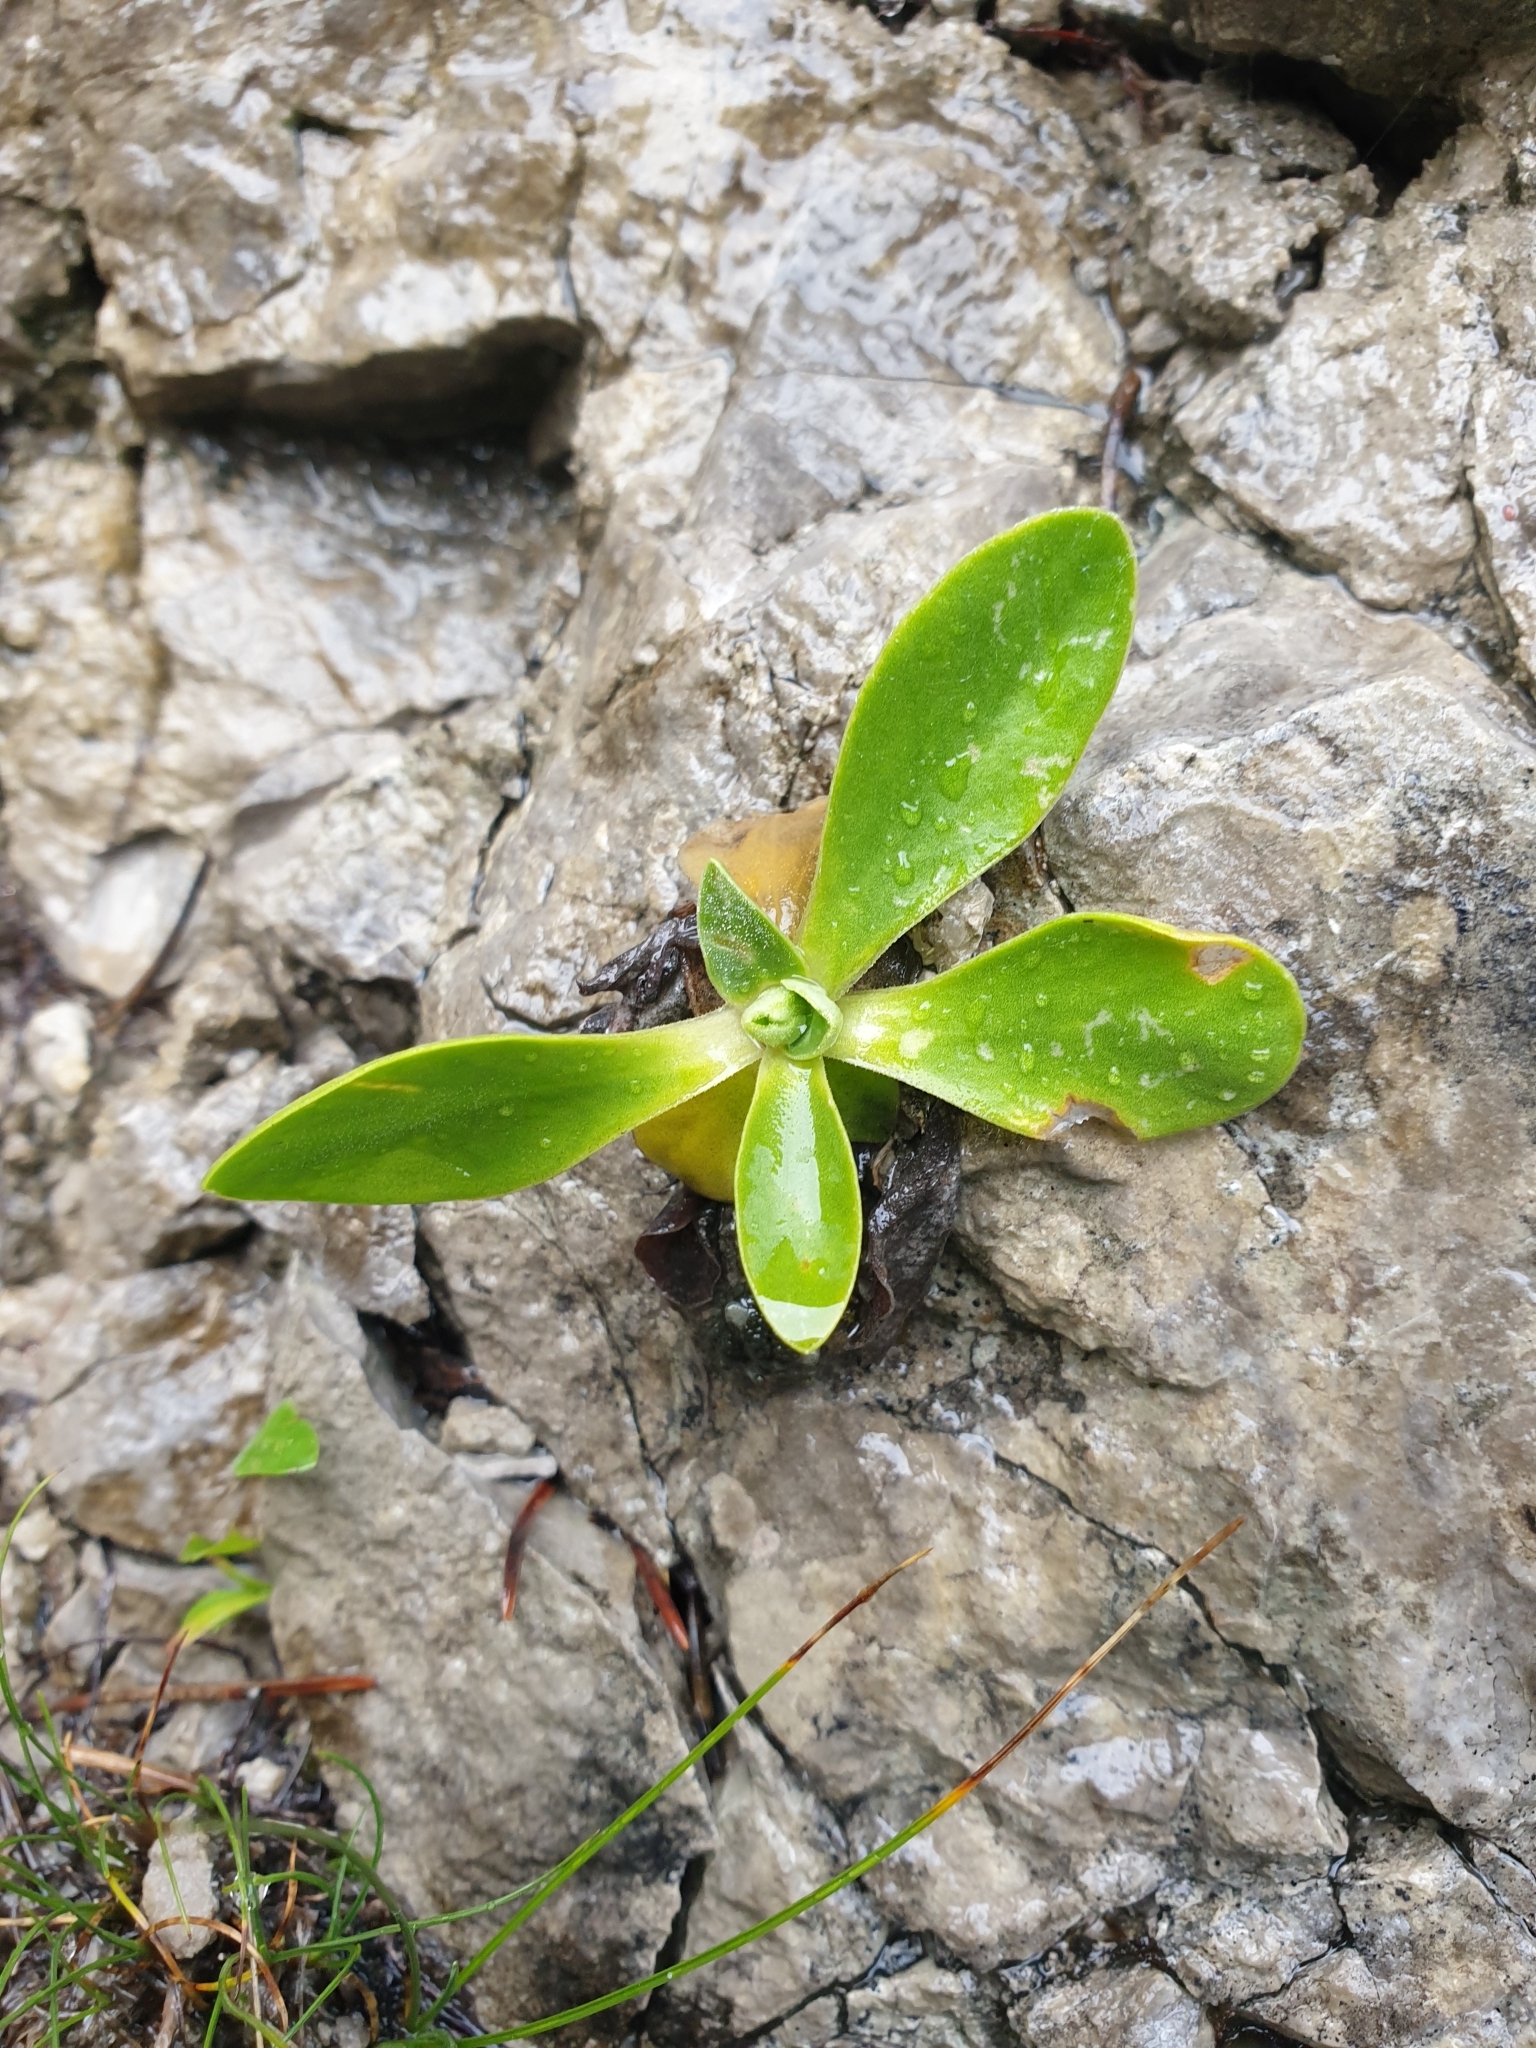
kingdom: Plantae
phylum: Tracheophyta
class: Magnoliopsida
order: Ericales
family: Primulaceae
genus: Primula
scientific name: Primula auricula
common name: Auricula
